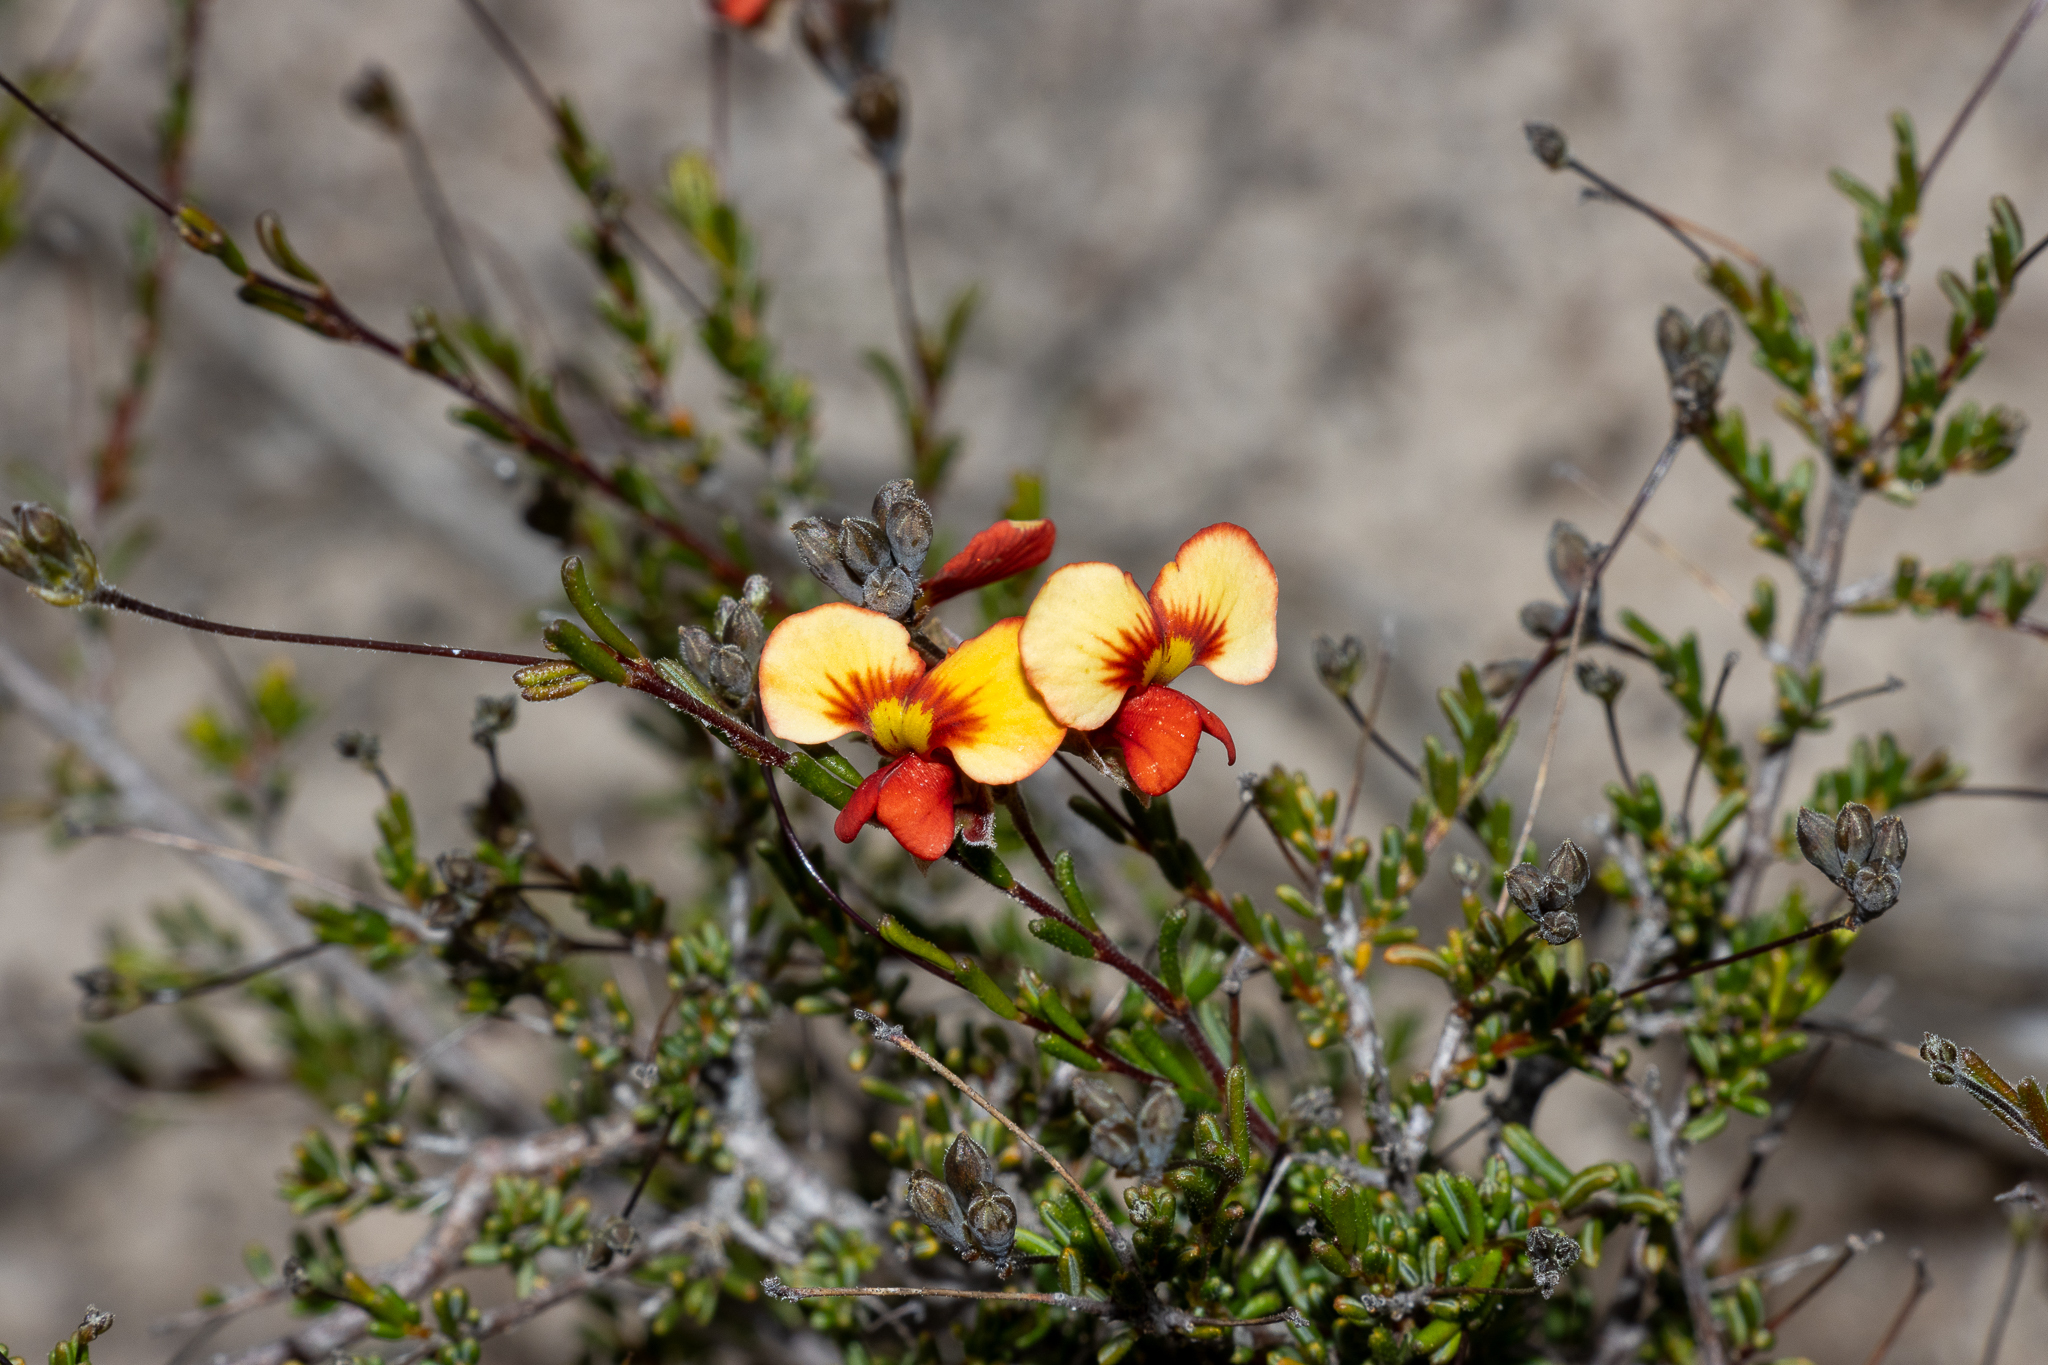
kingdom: Plantae
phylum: Tracheophyta
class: Magnoliopsida
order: Fabales
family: Fabaceae
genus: Dillwynia
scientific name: Dillwynia hispida
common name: Red parrot-pea
